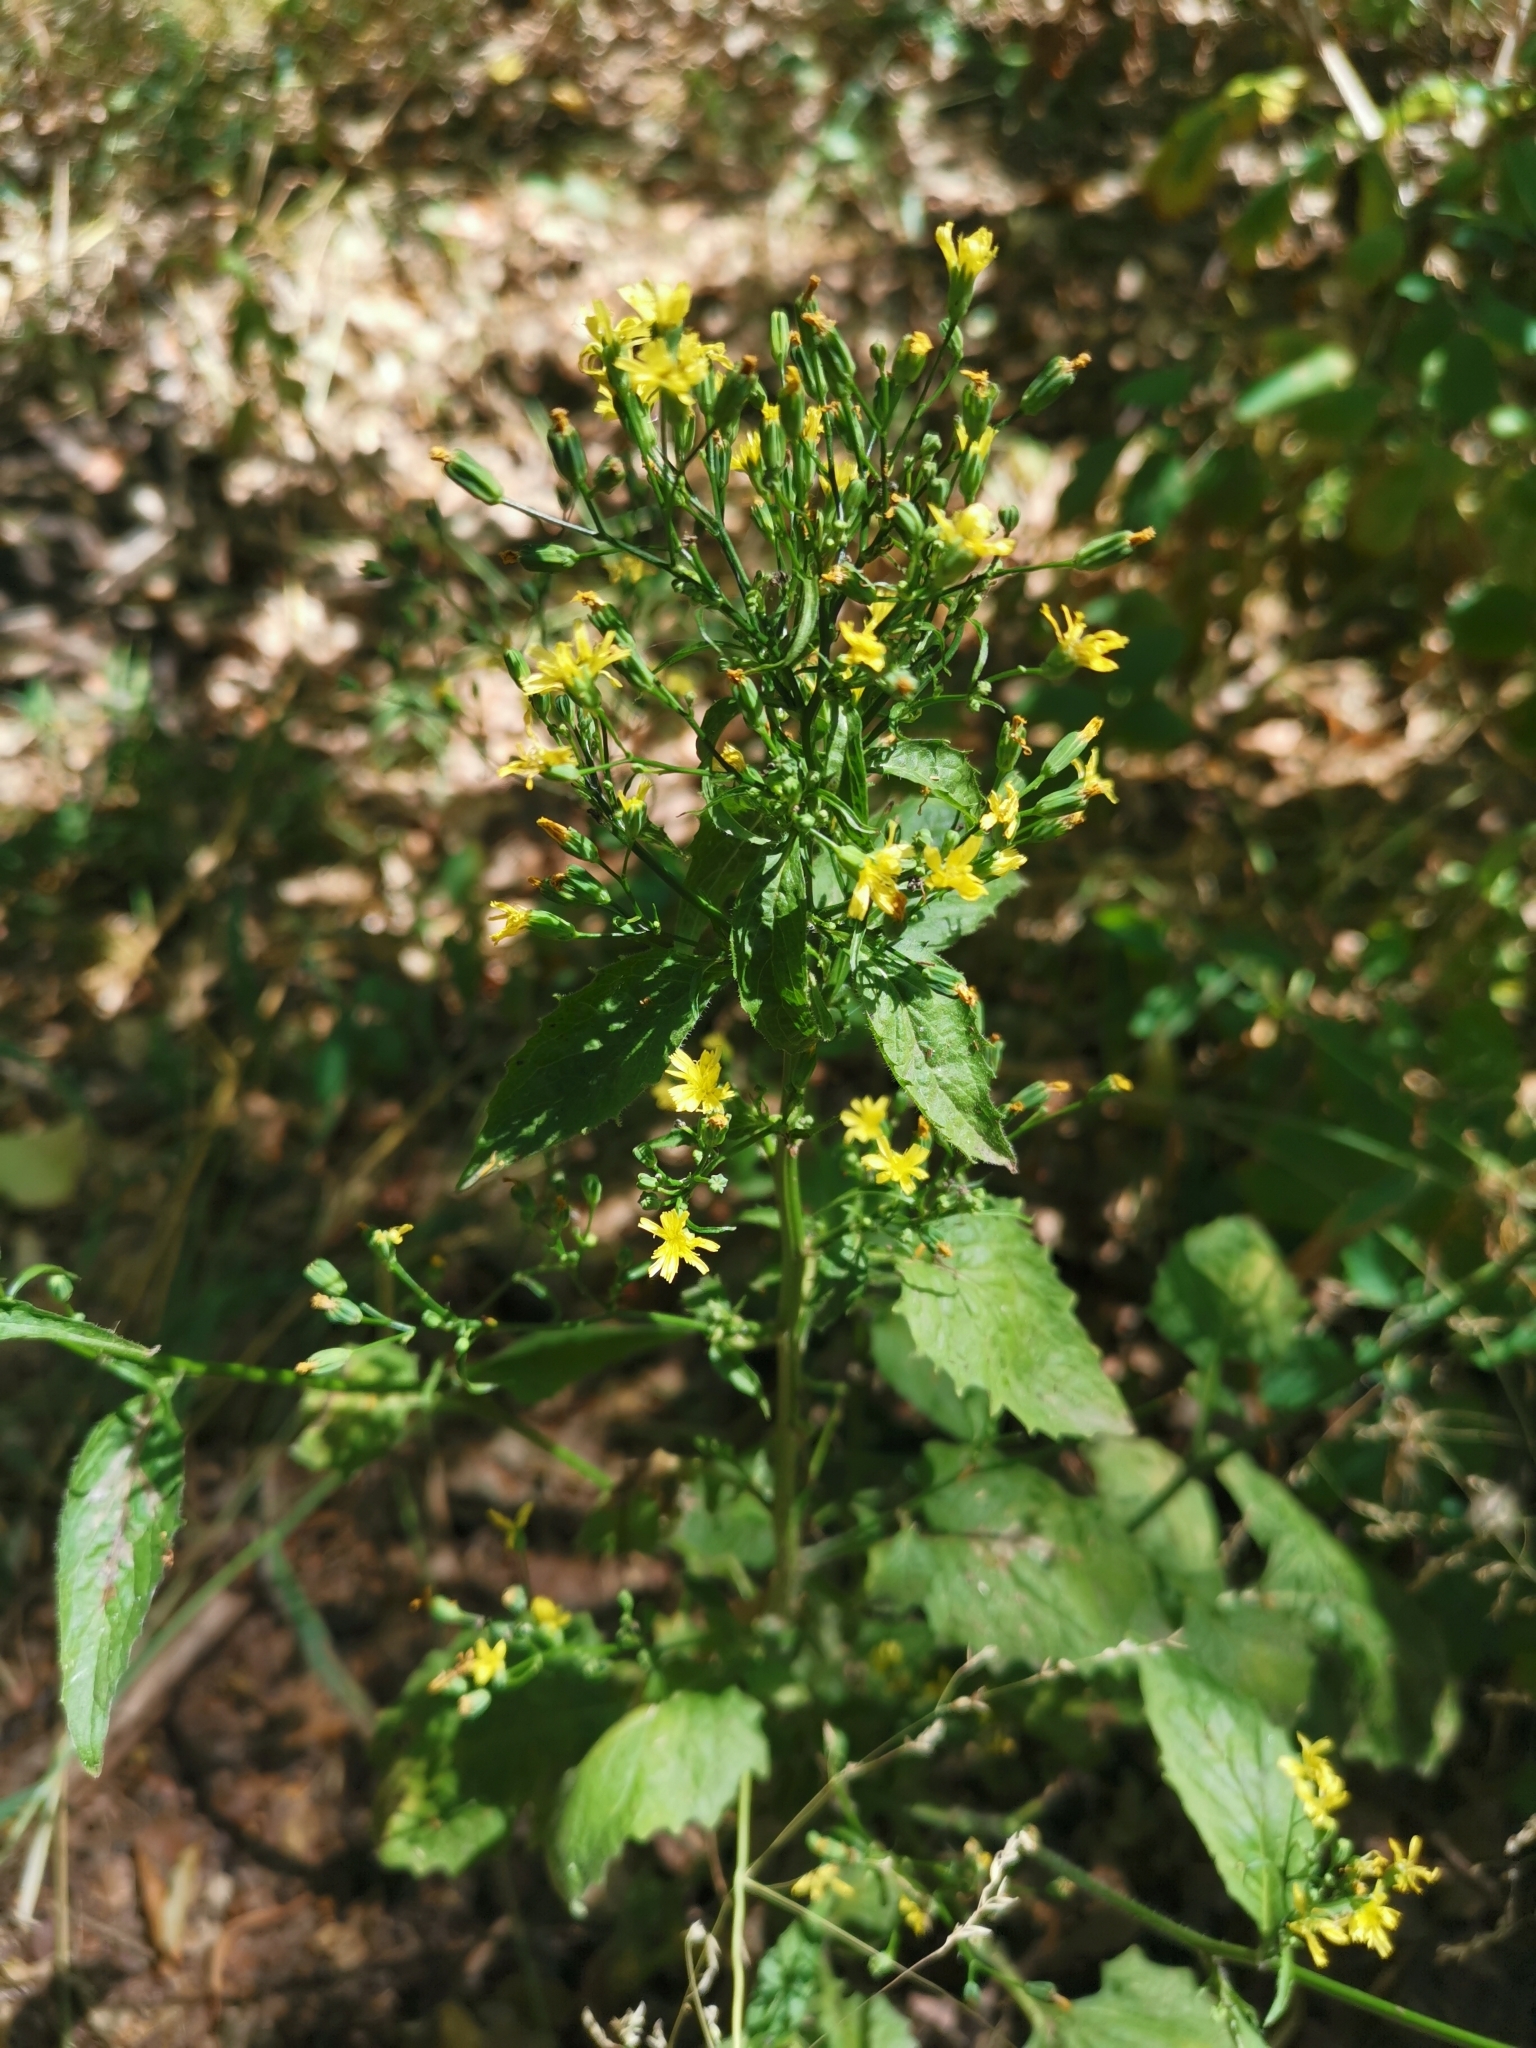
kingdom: Plantae
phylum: Tracheophyta
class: Magnoliopsida
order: Asterales
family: Asteraceae
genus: Lapsana
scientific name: Lapsana communis
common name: Nipplewort
